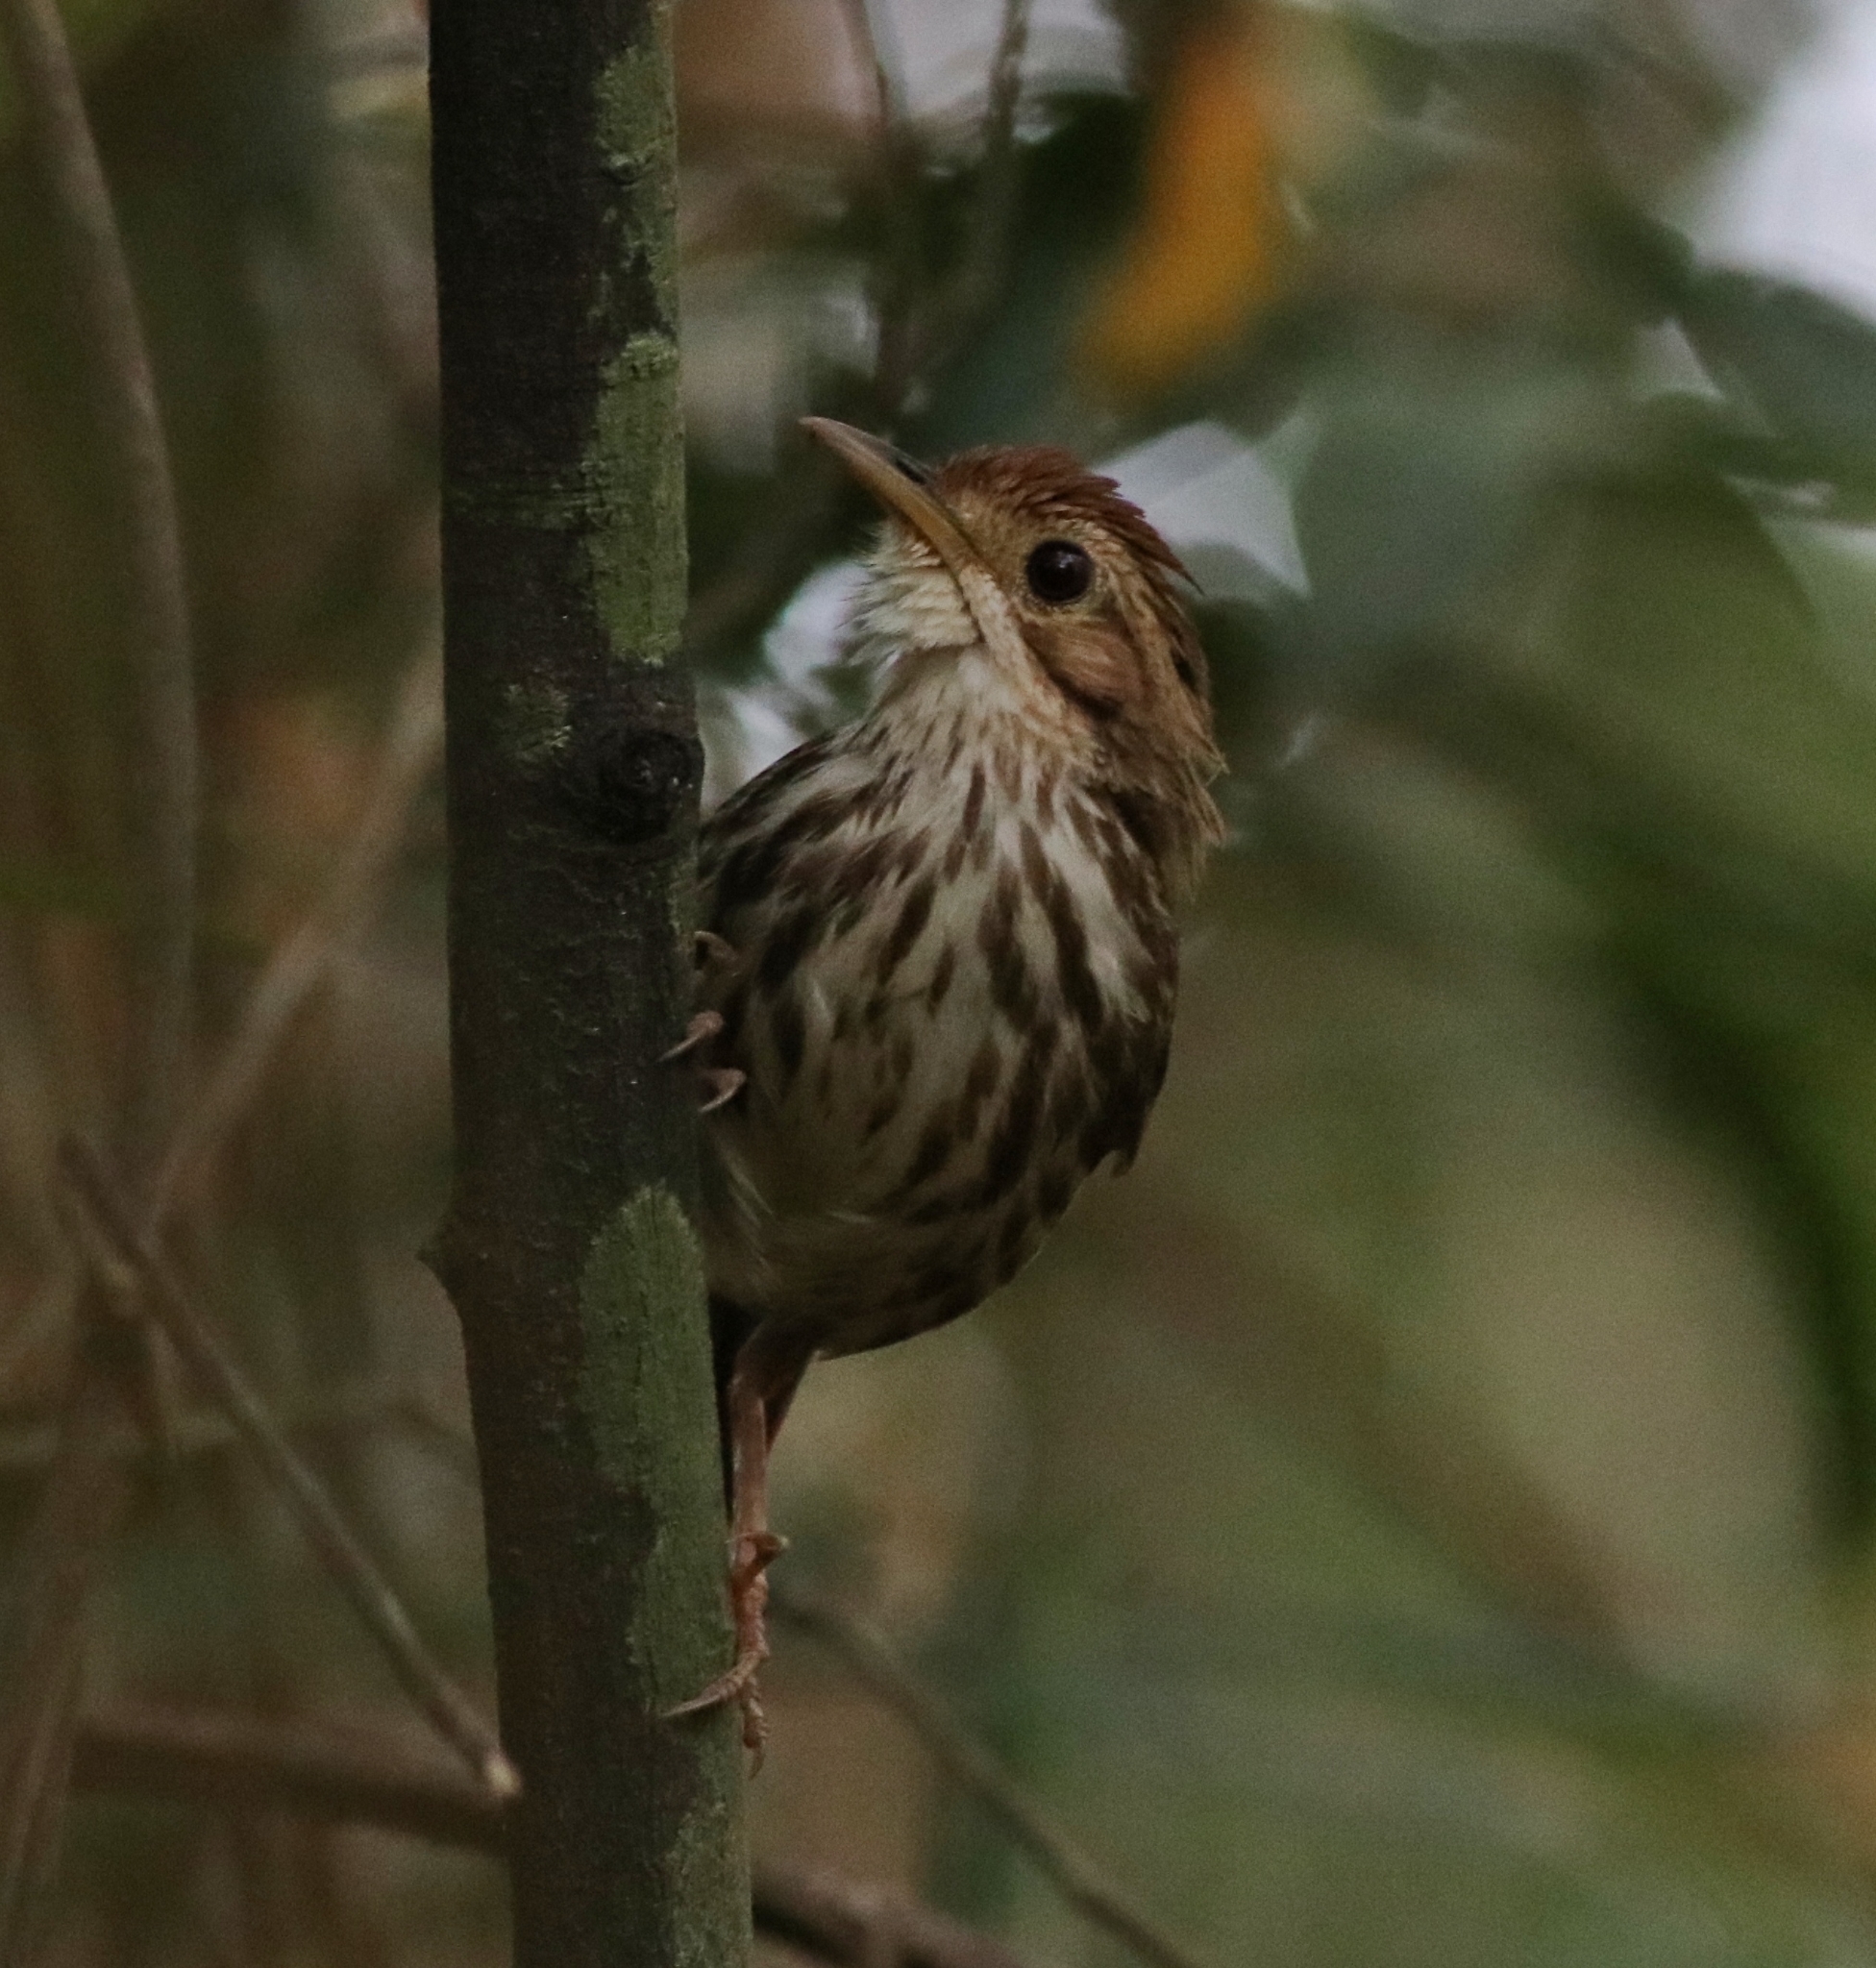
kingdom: Animalia
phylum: Chordata
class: Aves
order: Passeriformes
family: Pellorneidae
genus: Pellorneum
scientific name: Pellorneum ruficeps
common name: Puff-throated babbler
